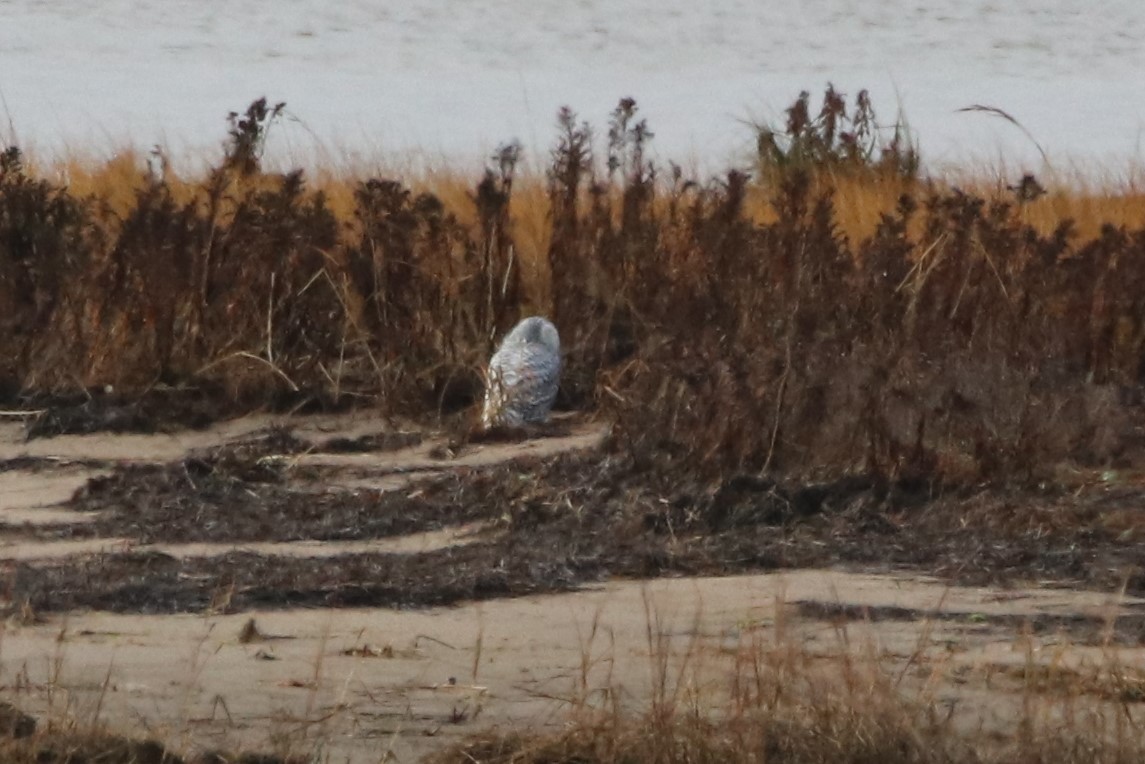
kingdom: Animalia
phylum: Chordata
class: Aves
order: Strigiformes
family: Strigidae
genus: Bubo
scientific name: Bubo scandiacus
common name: Snowy owl
